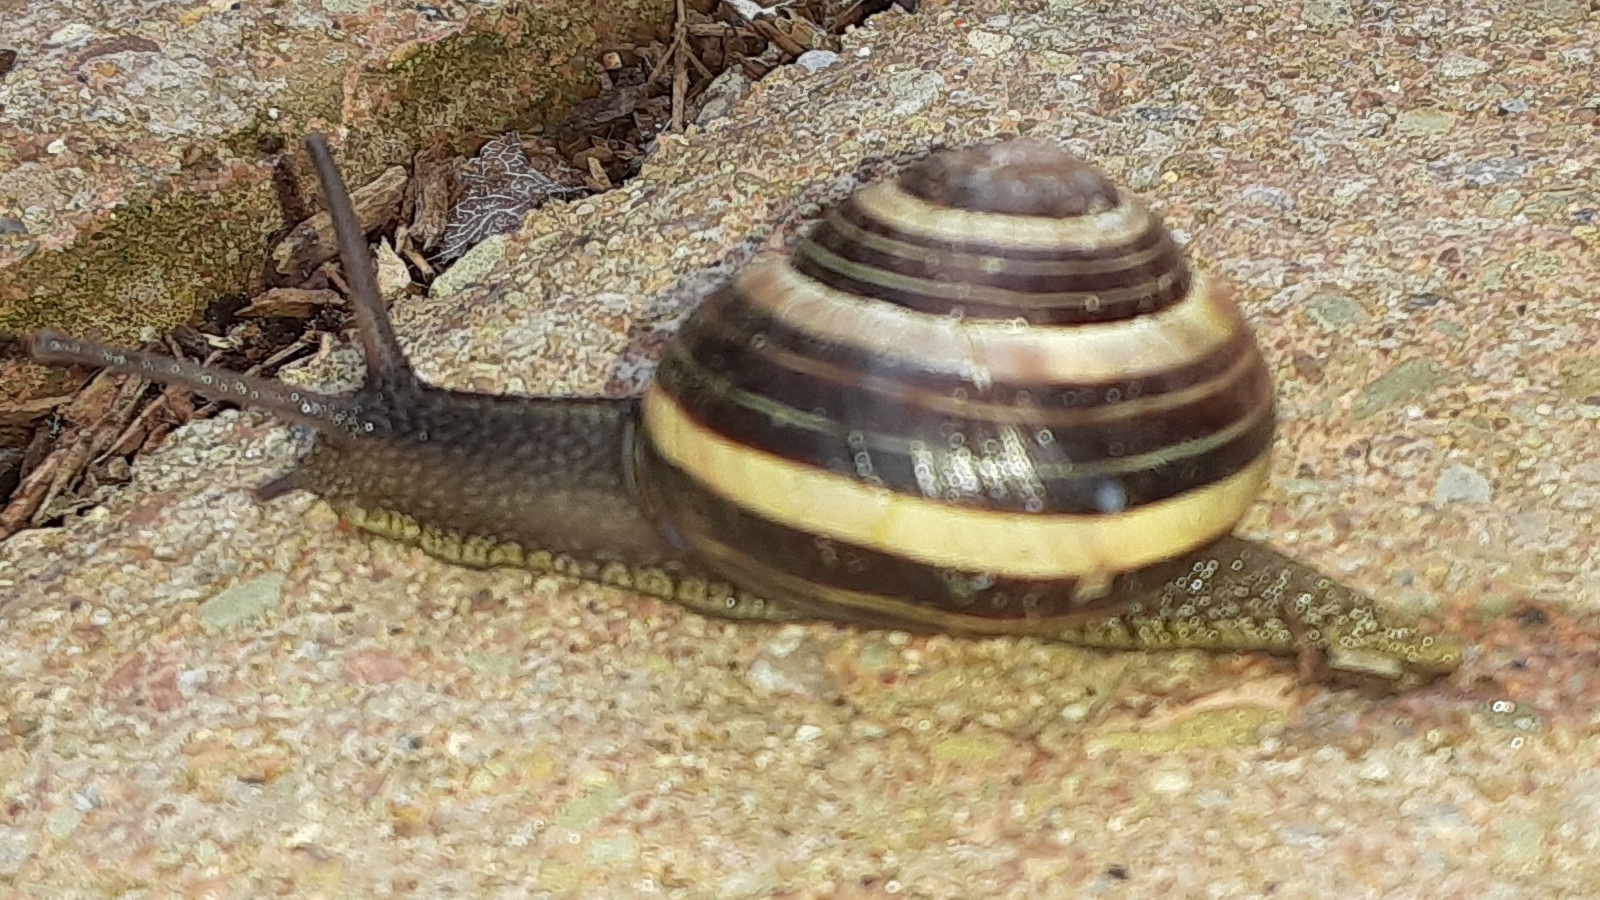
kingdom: Animalia
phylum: Mollusca
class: Gastropoda
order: Stylommatophora
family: Helicidae
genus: Cepaea
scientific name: Cepaea nemoralis
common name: Grovesnail
